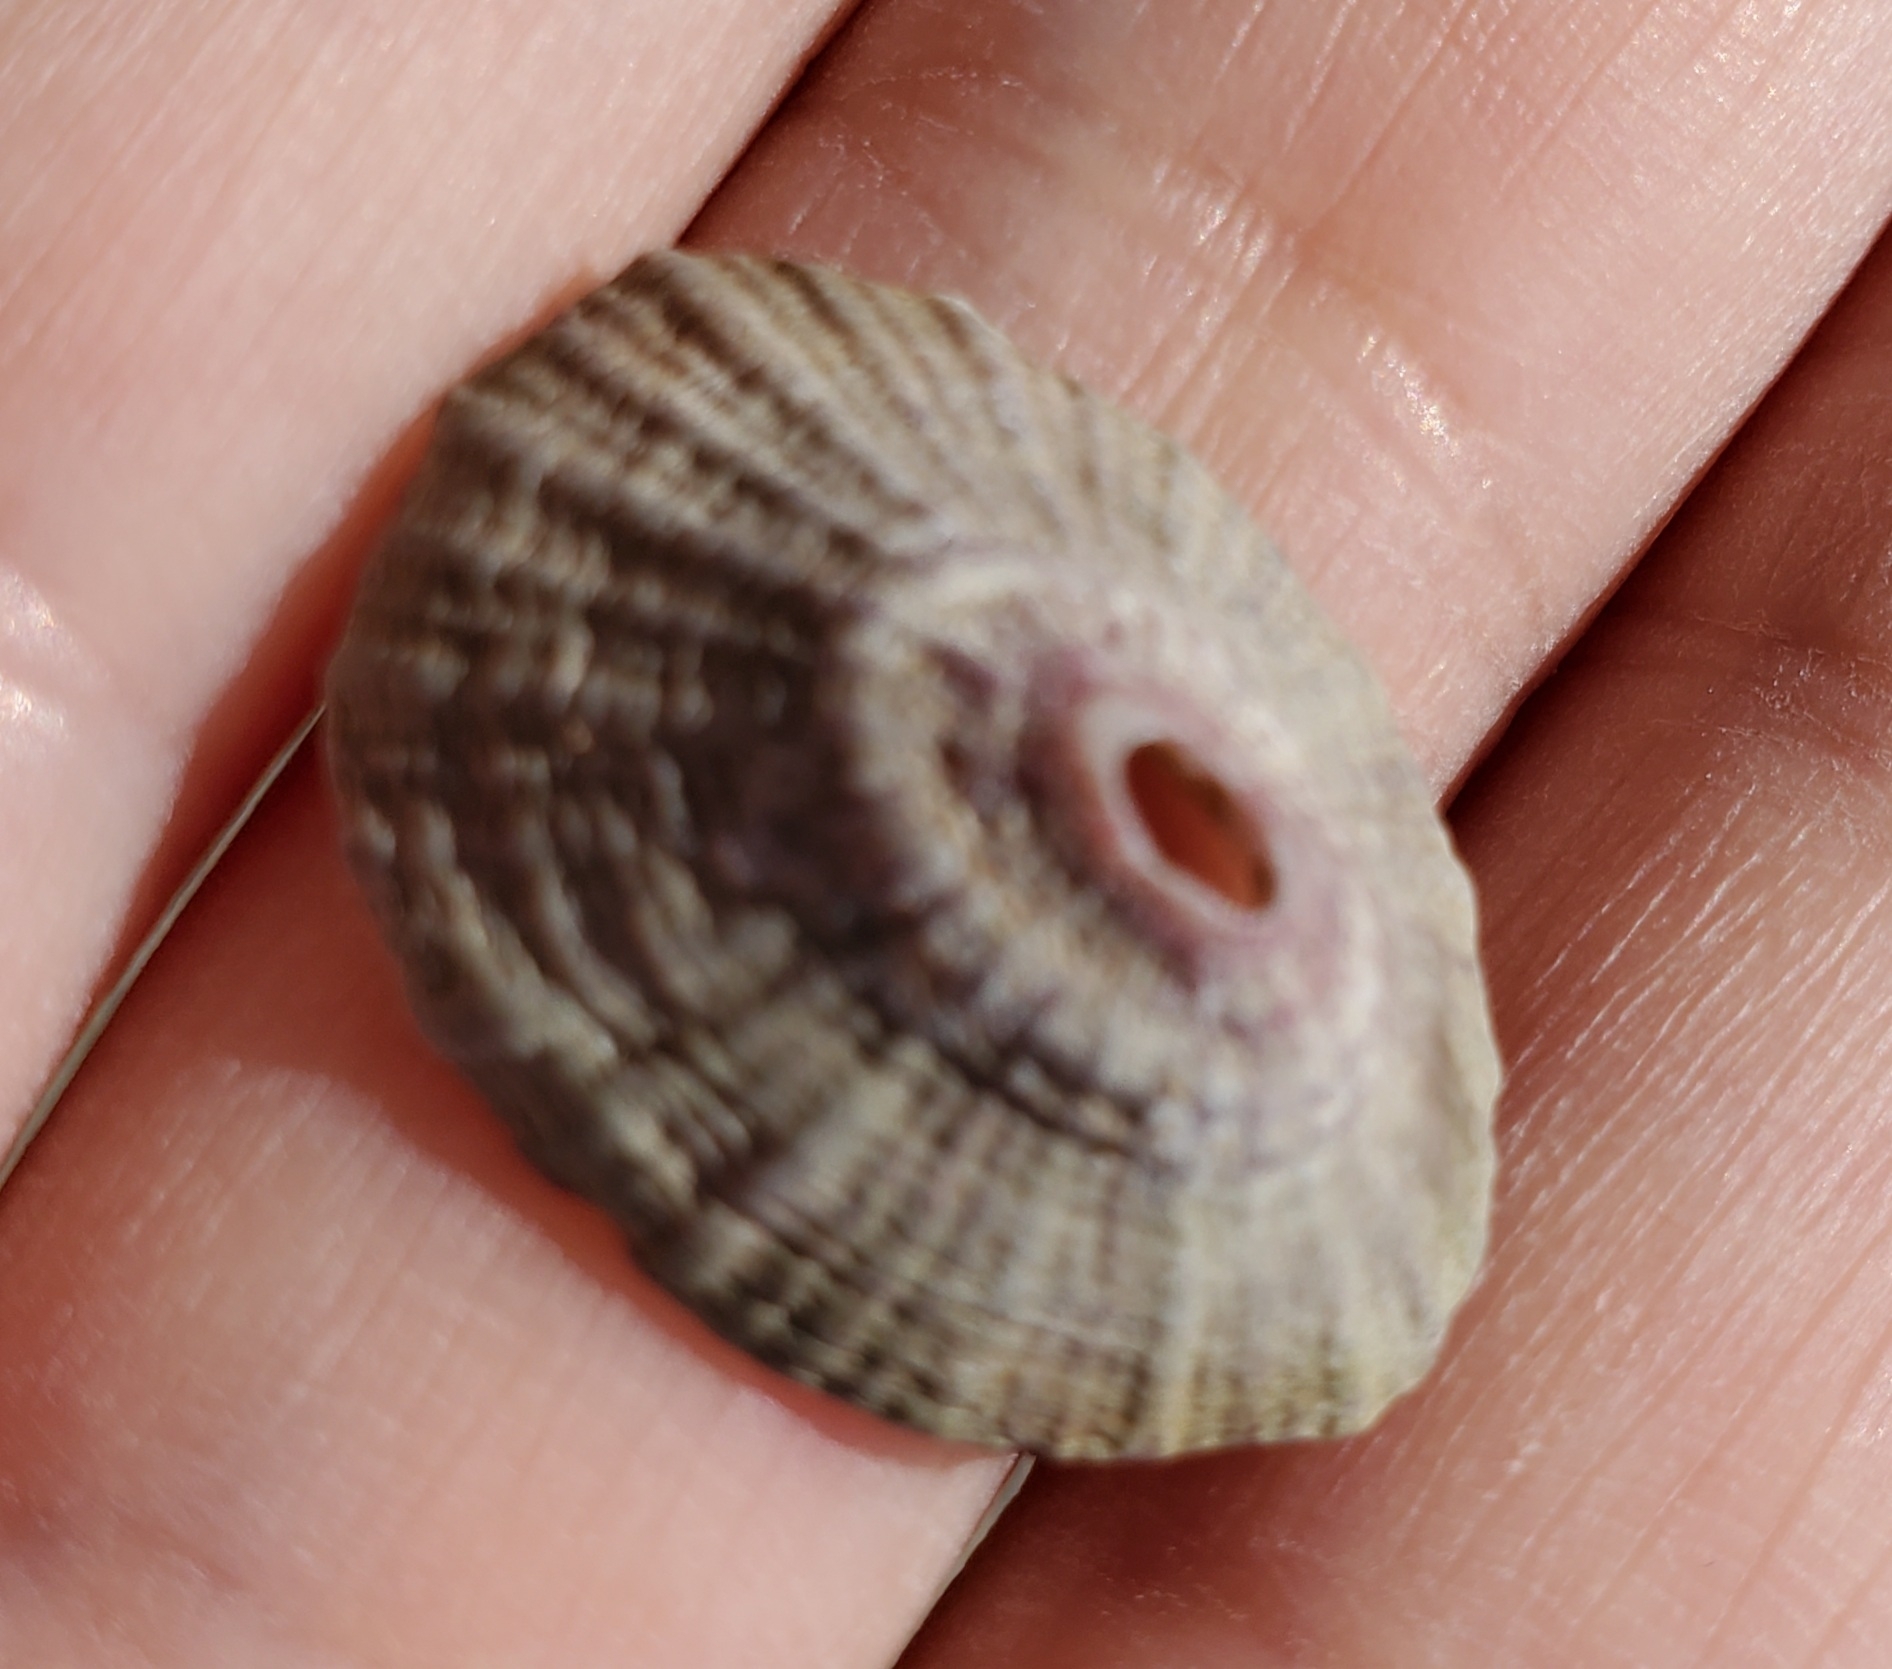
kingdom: Animalia
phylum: Mollusca
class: Gastropoda
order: Lepetellida
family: Fissurellidae
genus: Fissurella
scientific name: Fissurella volcano
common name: Volcano keyhole limpet
